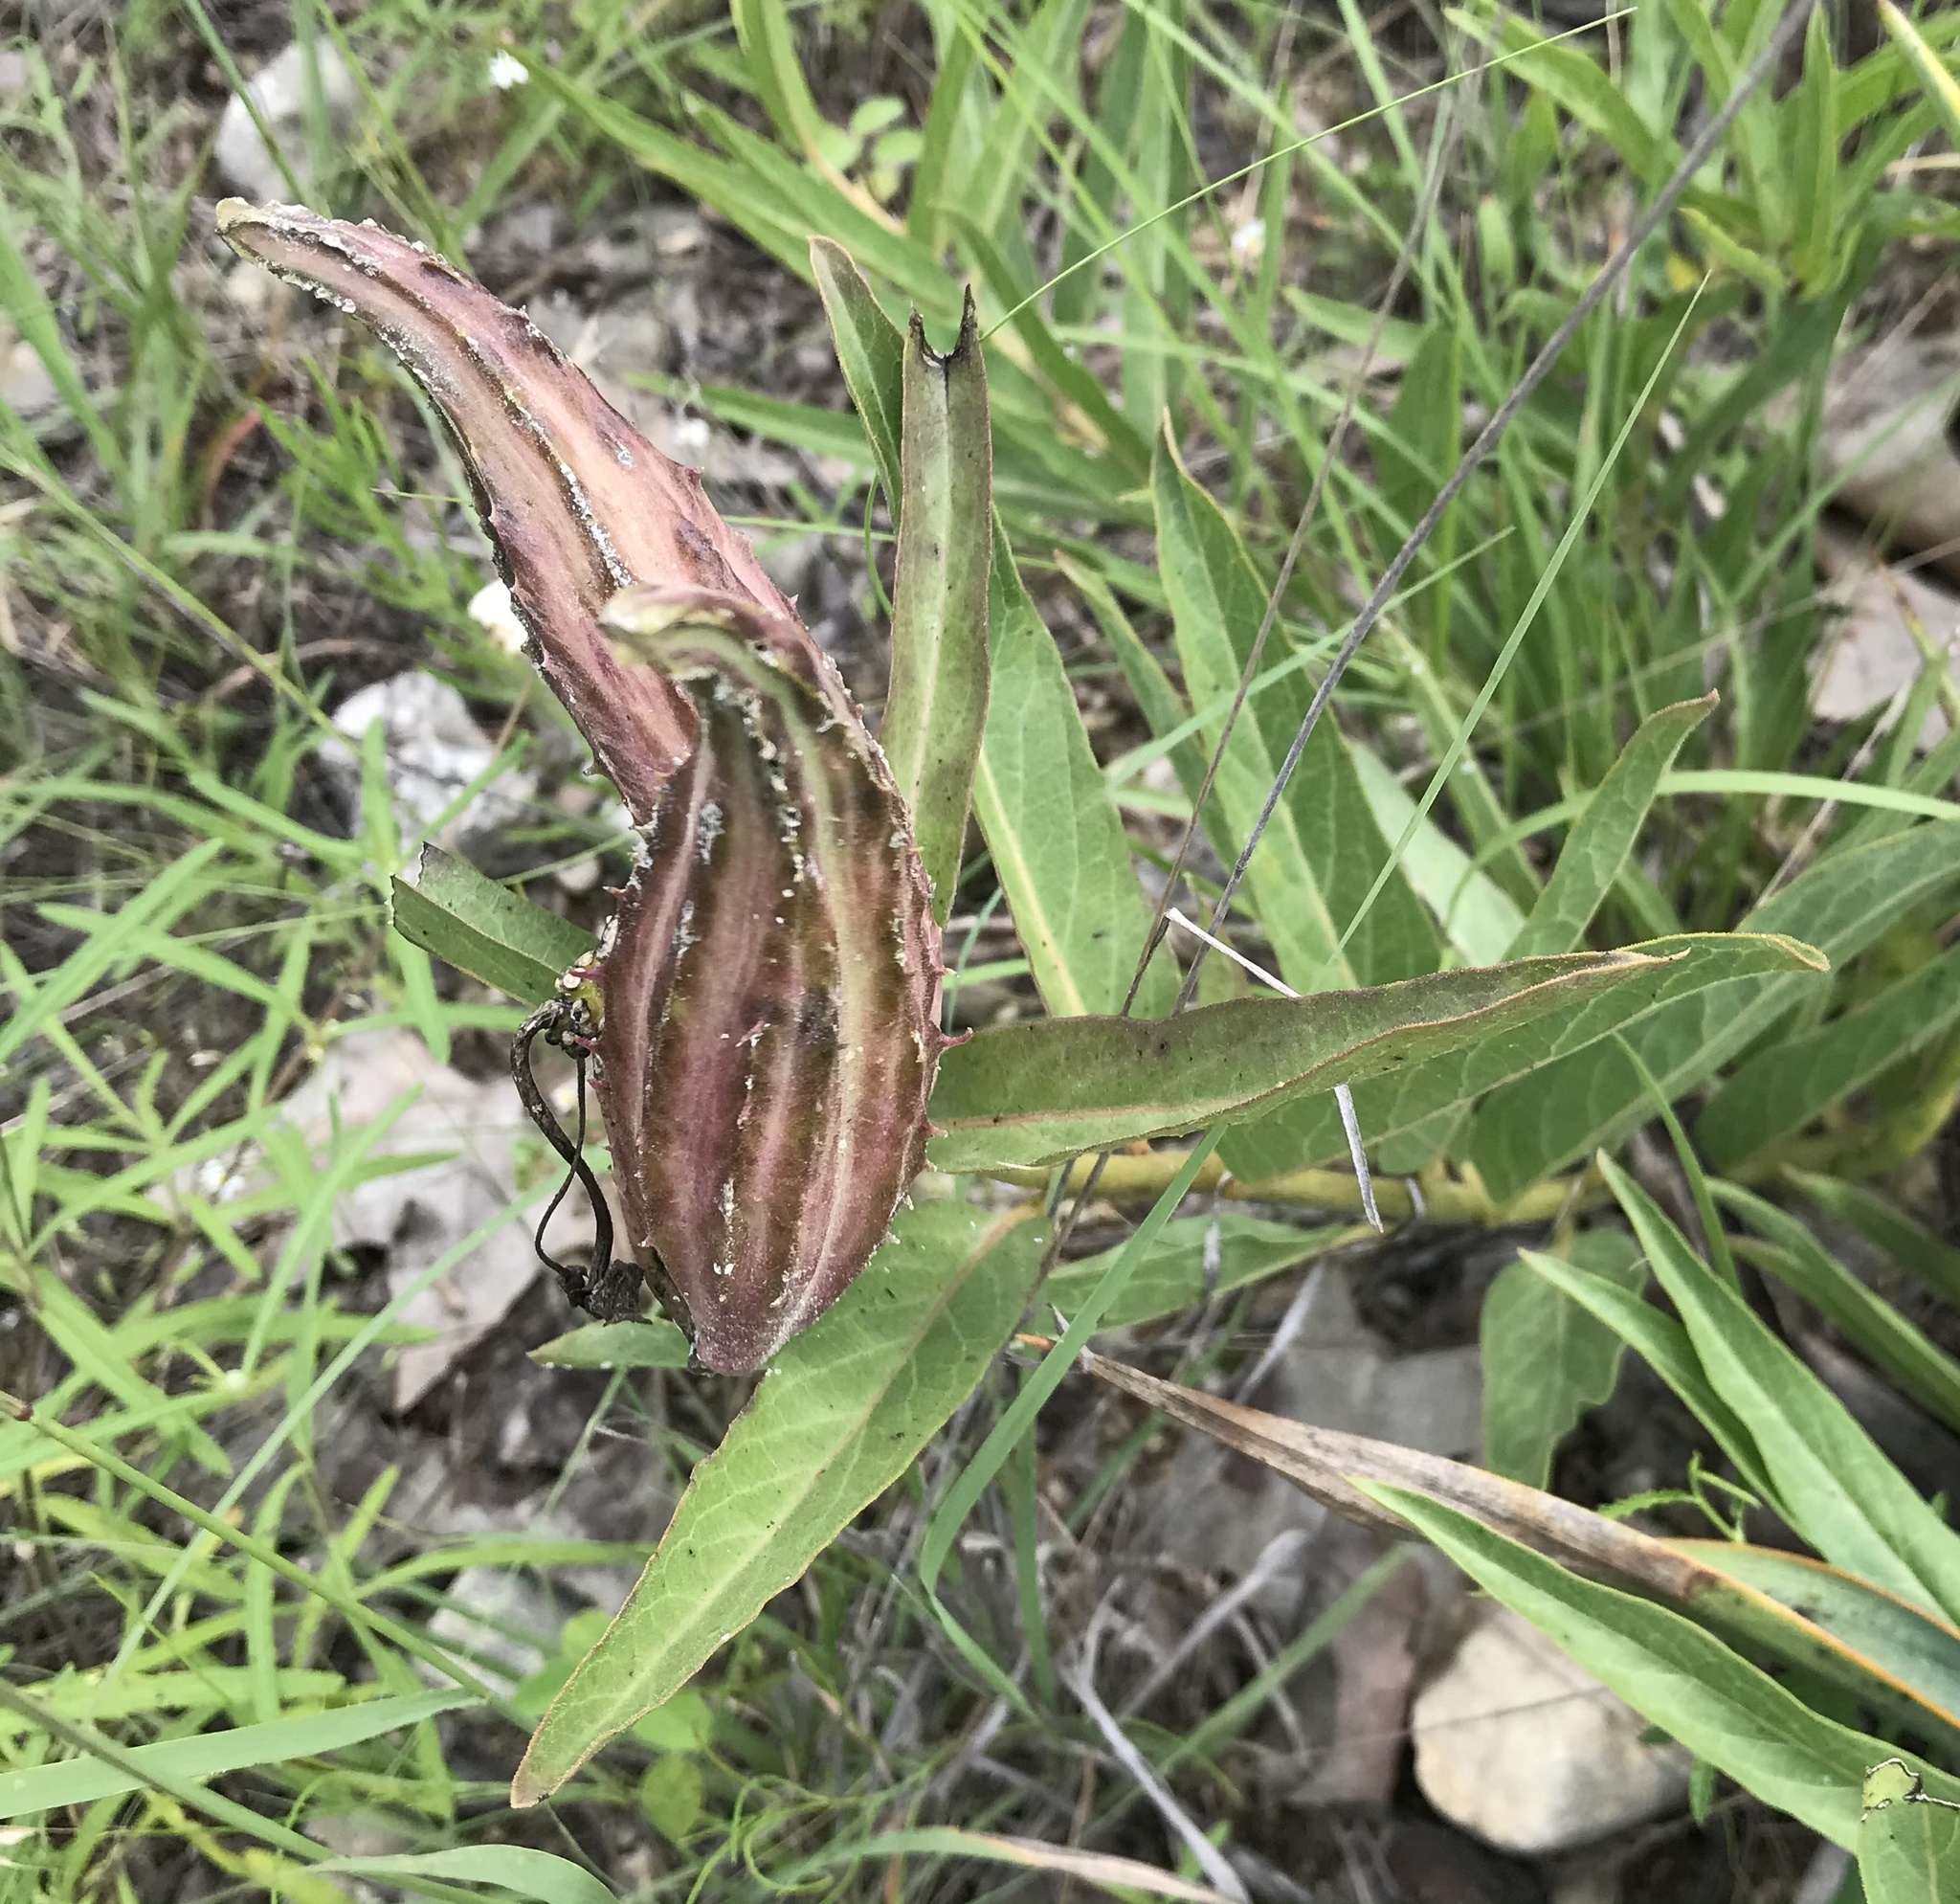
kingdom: Plantae
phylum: Tracheophyta
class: Magnoliopsida
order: Gentianales
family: Apocynaceae
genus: Asclepias
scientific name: Asclepias asperula
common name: Antelope horns
